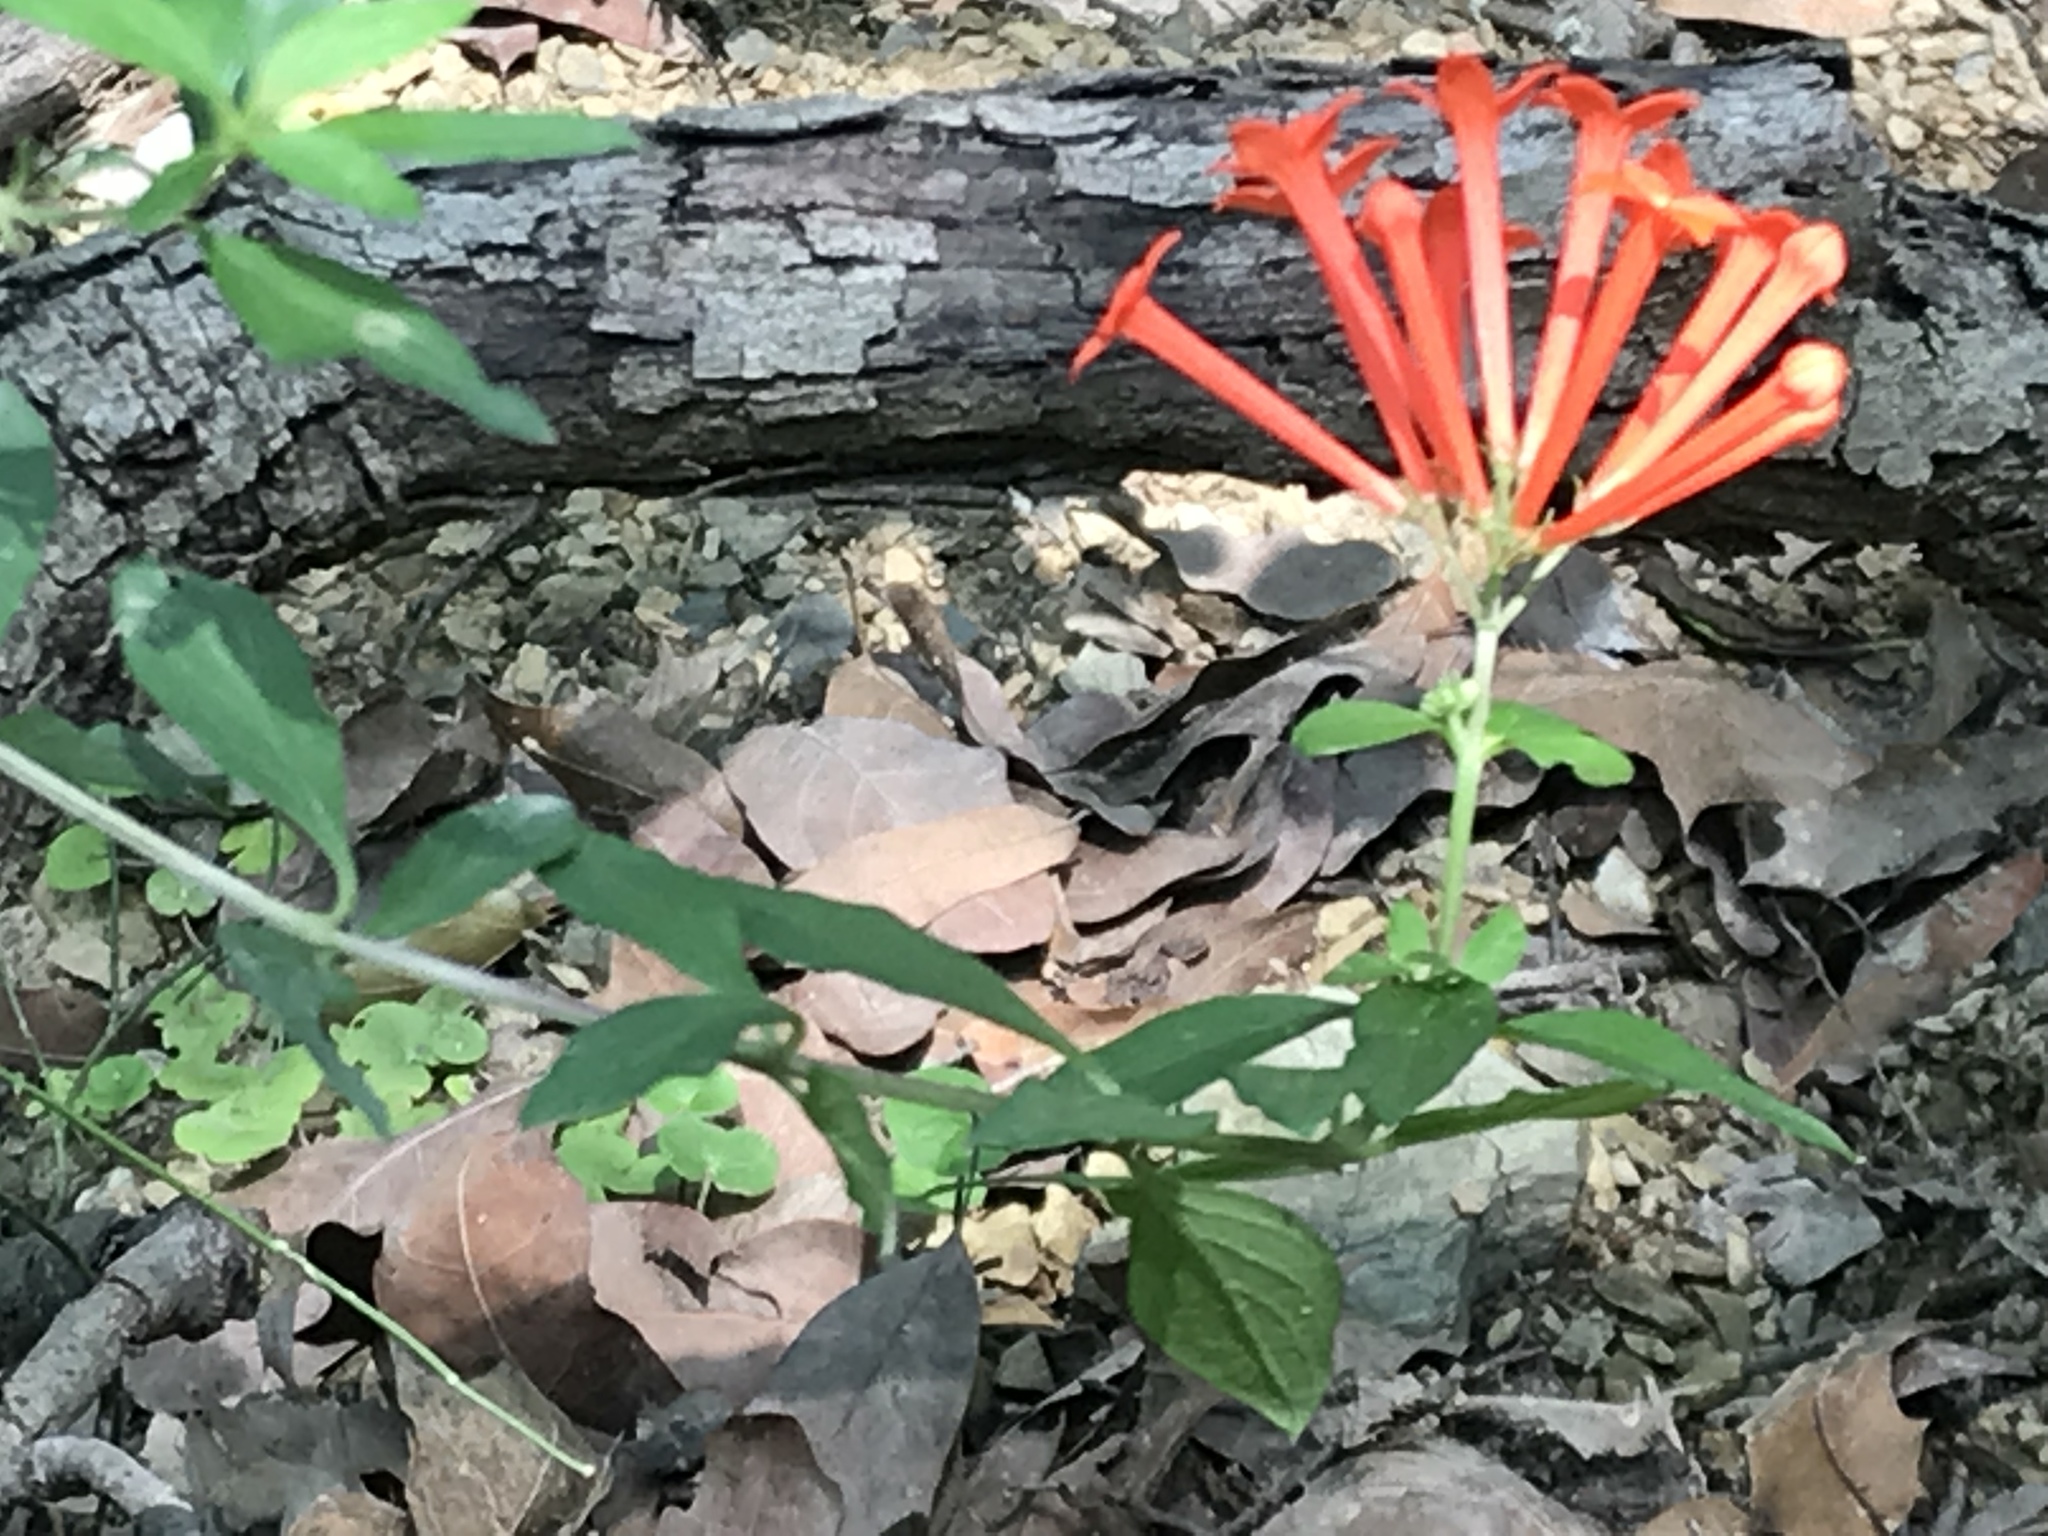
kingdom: Plantae
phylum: Tracheophyta
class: Magnoliopsida
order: Gentianales
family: Rubiaceae
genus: Bouvardia
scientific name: Bouvardia ternifolia
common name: Scarlet bouvardia
